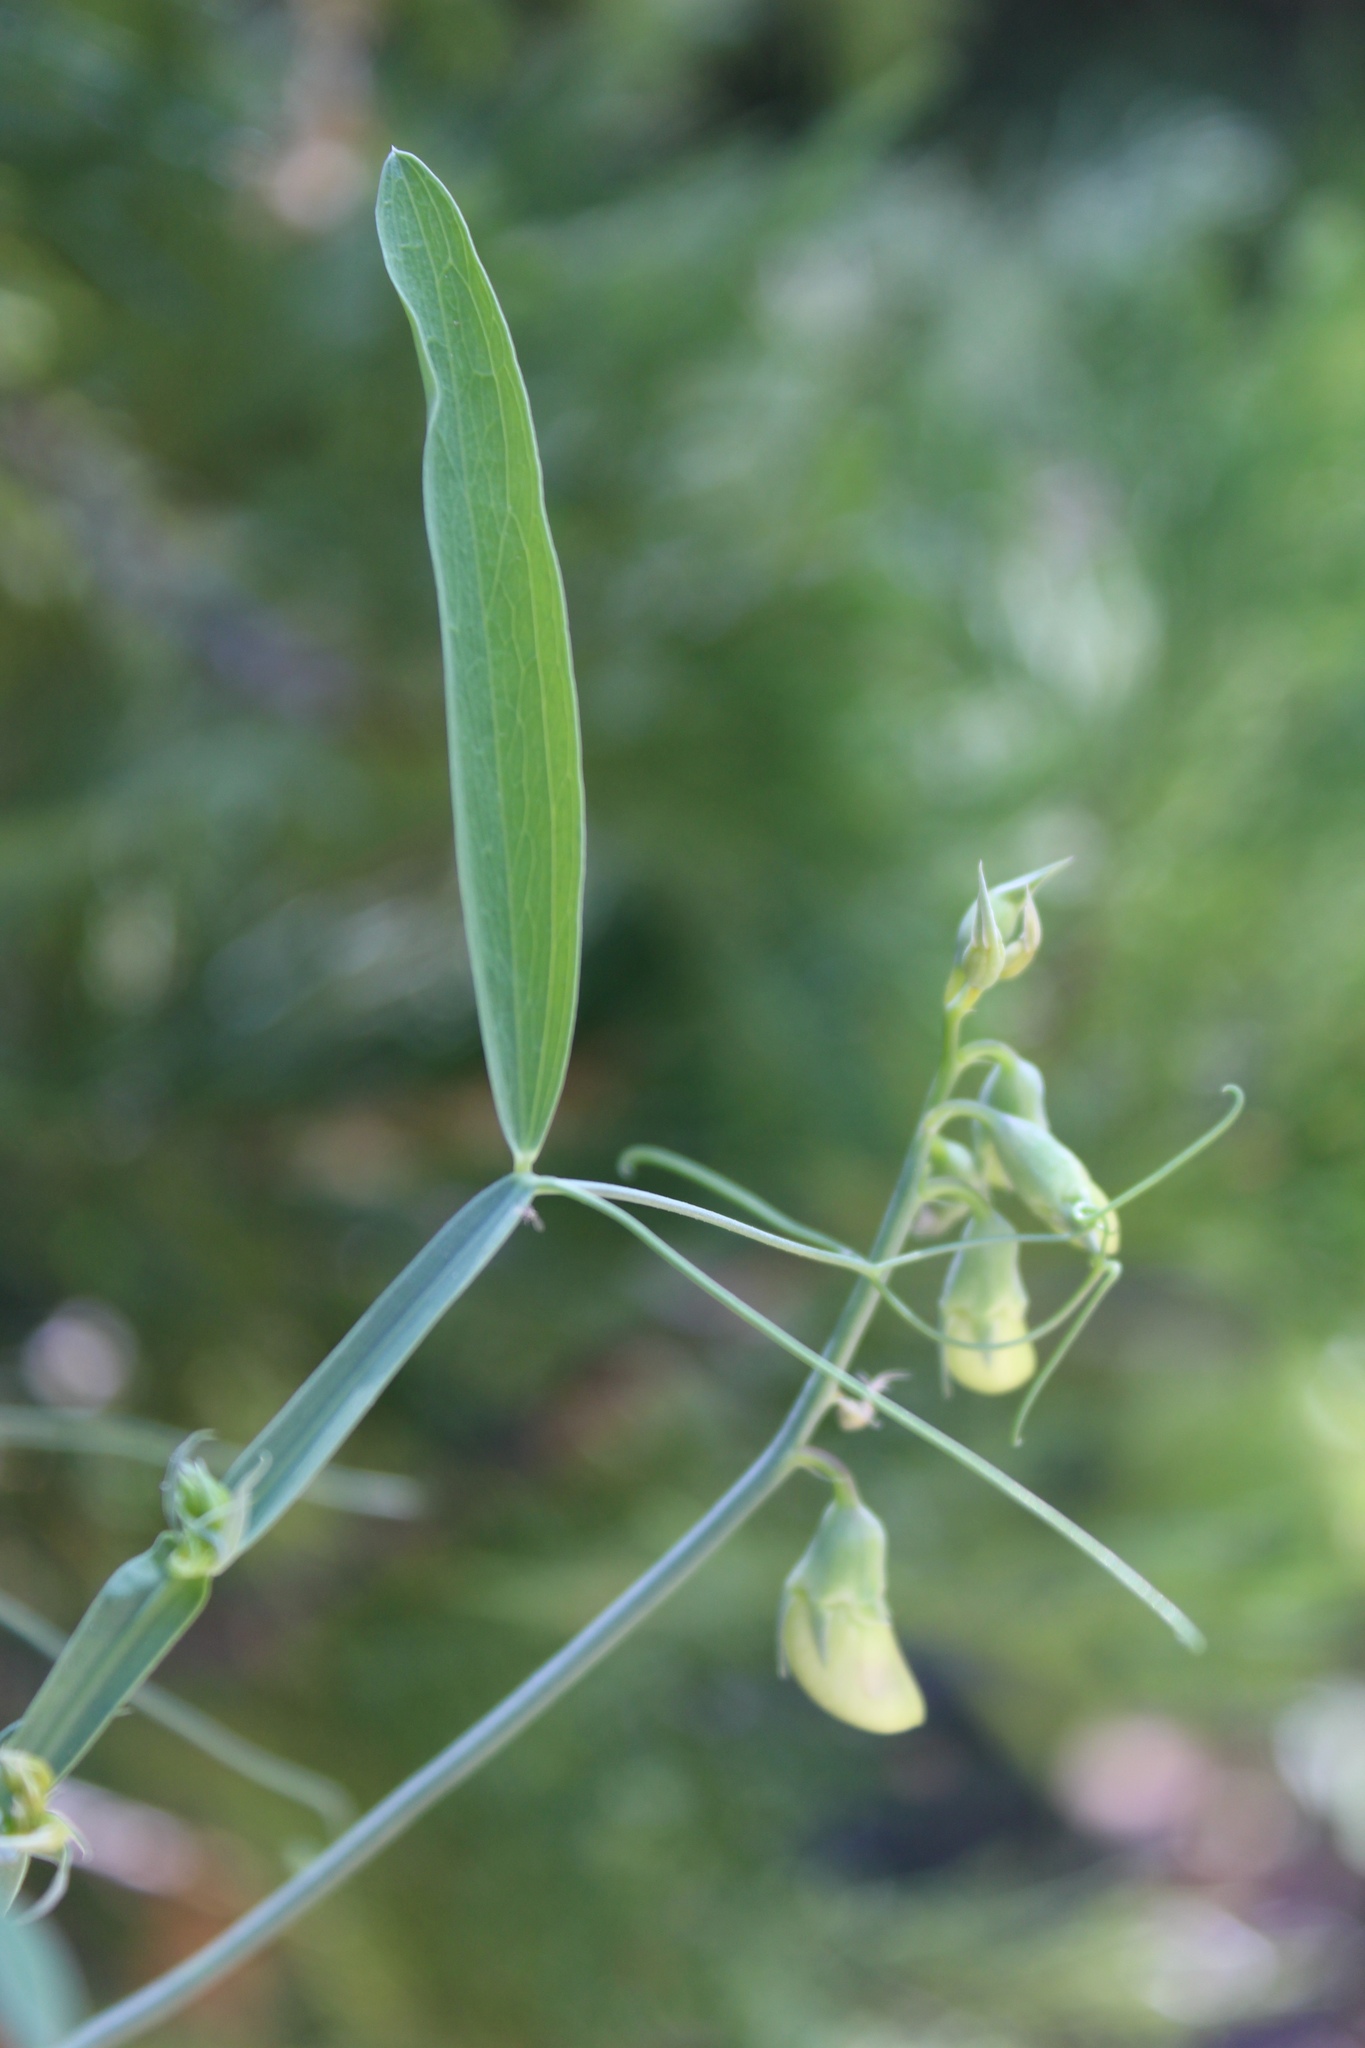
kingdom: Plantae
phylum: Tracheophyta
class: Magnoliopsida
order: Fabales
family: Fabaceae
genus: Lathyrus
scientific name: Lathyrus latifolius
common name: Perennial pea
